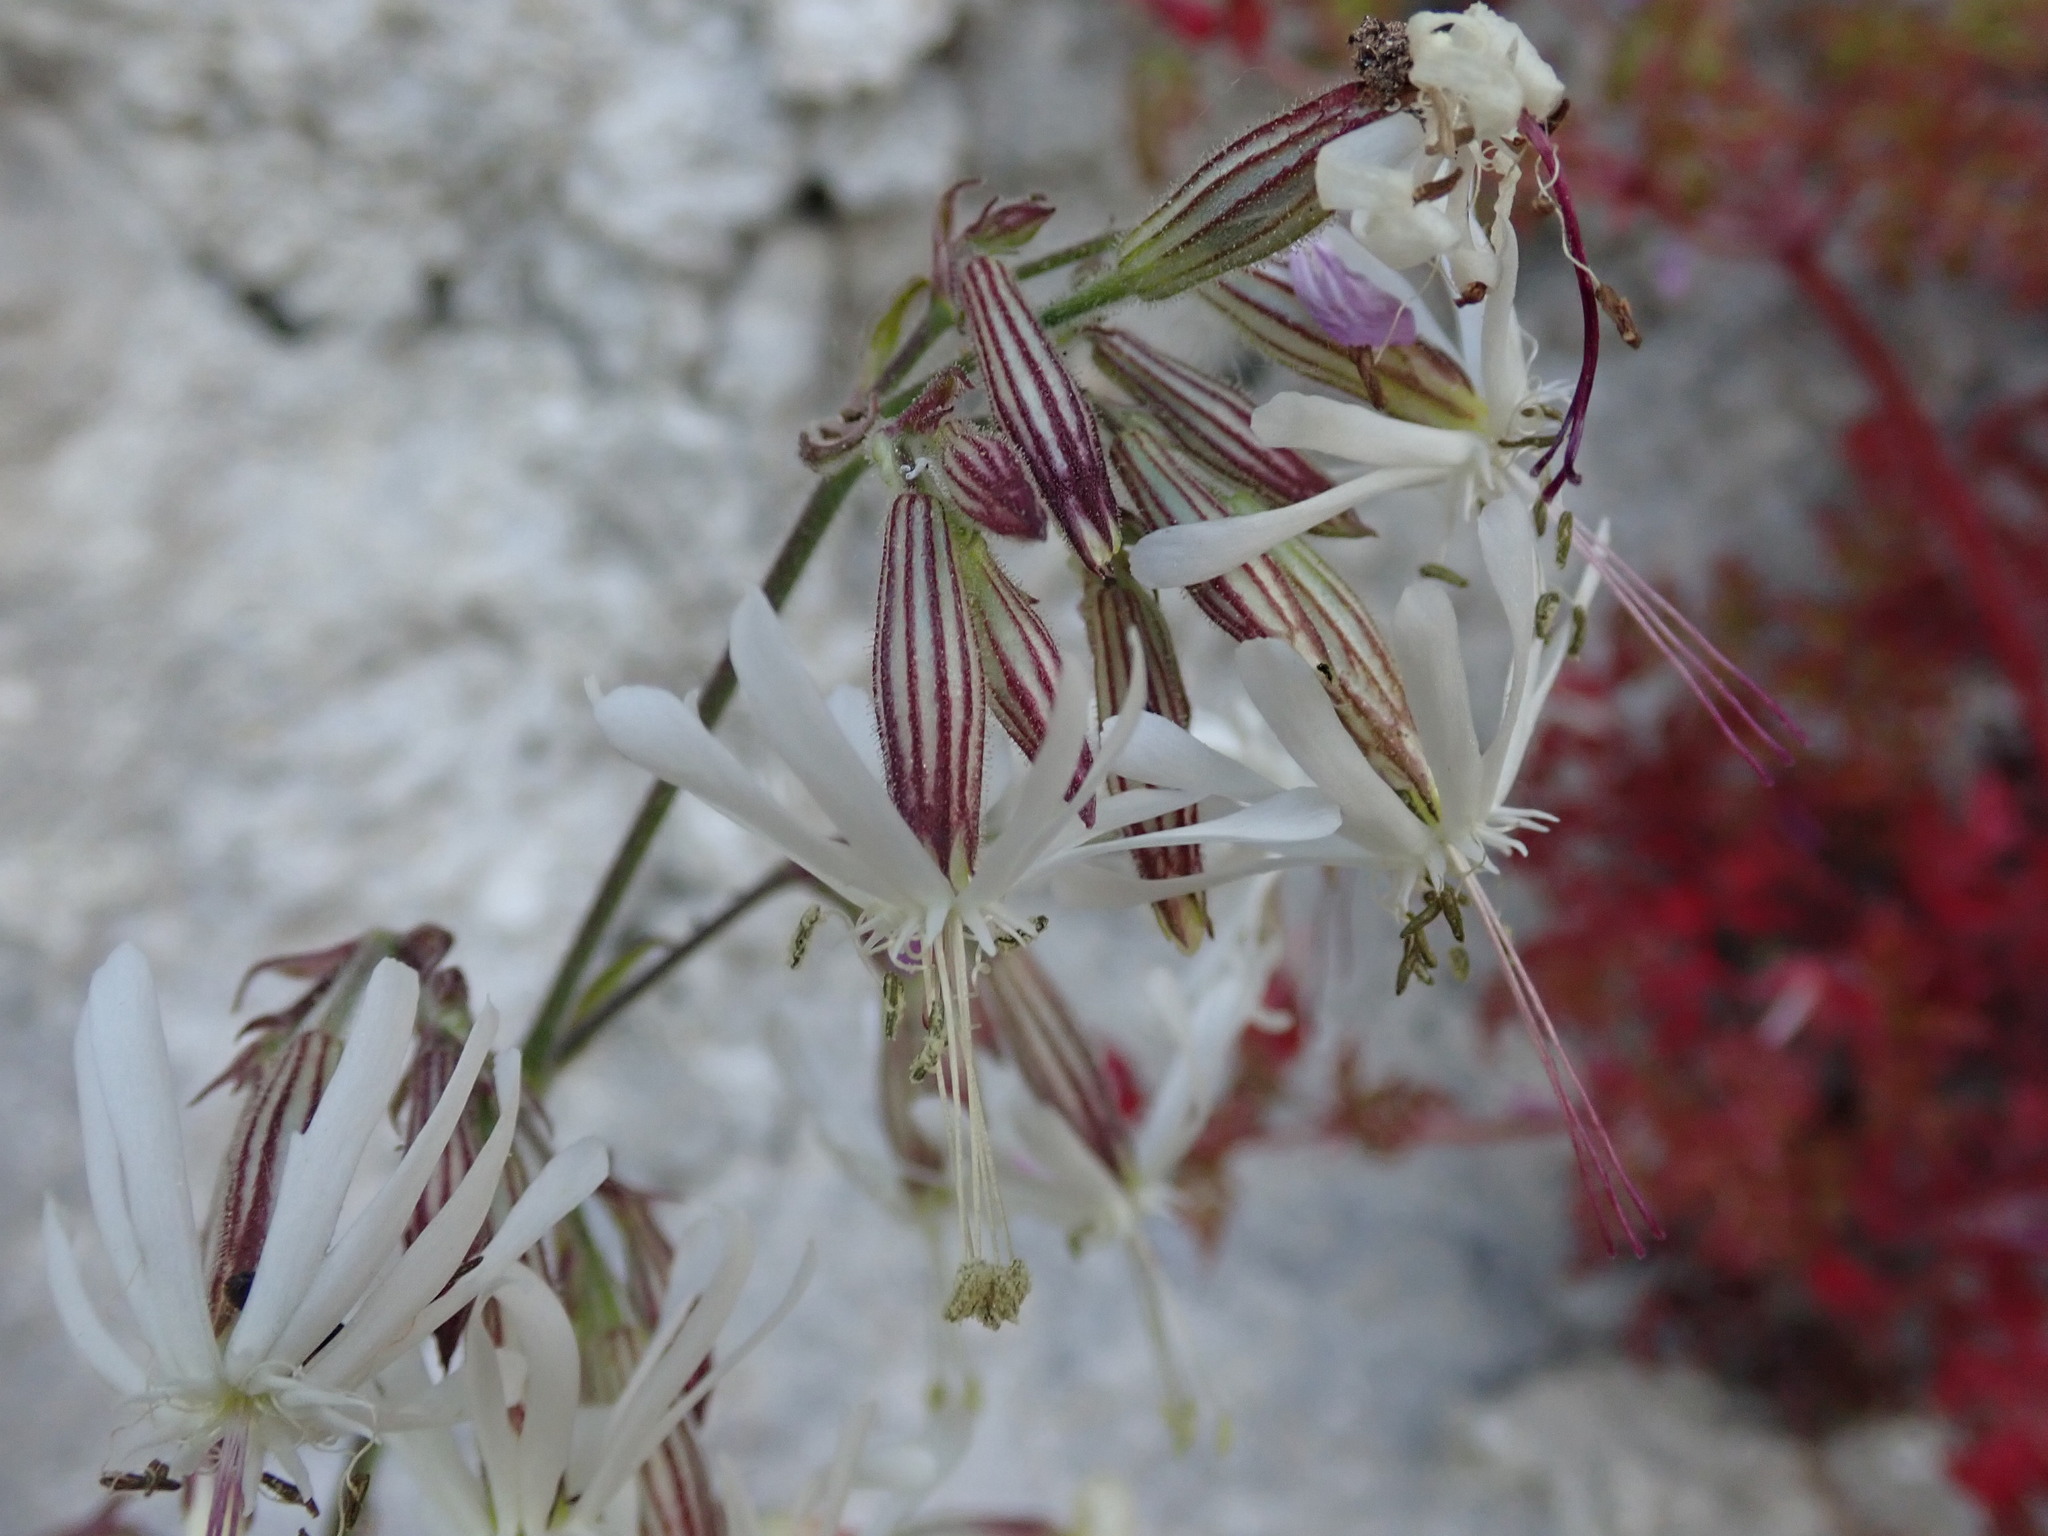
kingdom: Plantae
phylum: Tracheophyta
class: Magnoliopsida
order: Caryophyllales
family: Caryophyllaceae
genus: Silene
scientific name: Silene nutans
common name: Nottingham catchfly
